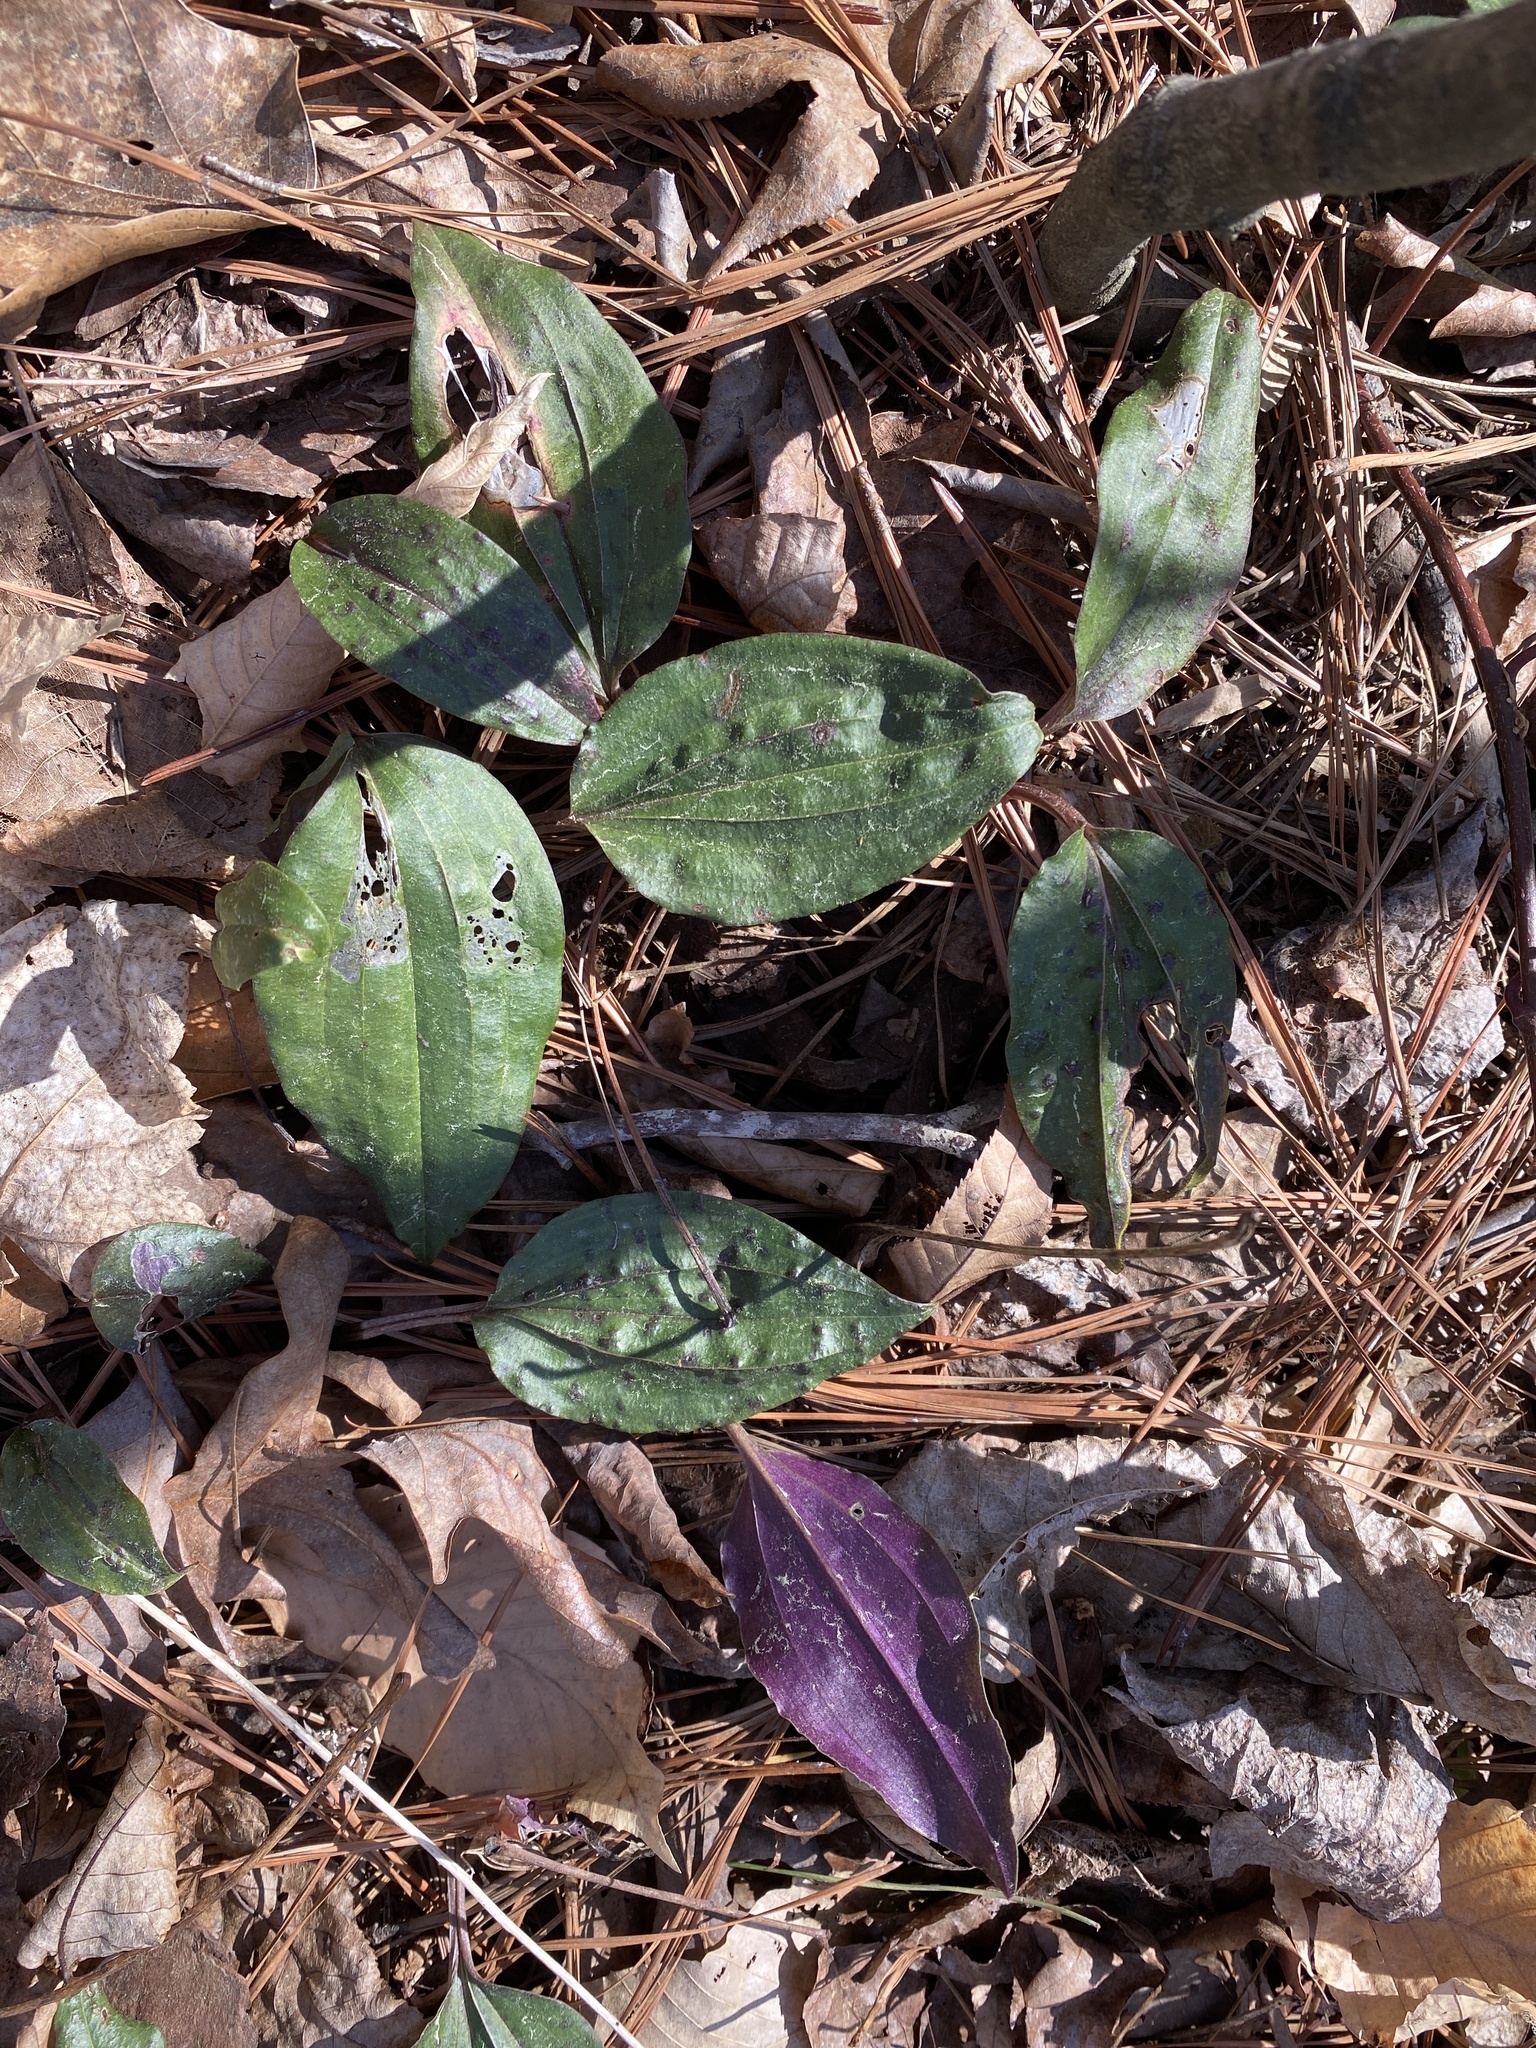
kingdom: Plantae
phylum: Tracheophyta
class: Liliopsida
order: Asparagales
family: Orchidaceae
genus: Tipularia
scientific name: Tipularia discolor
